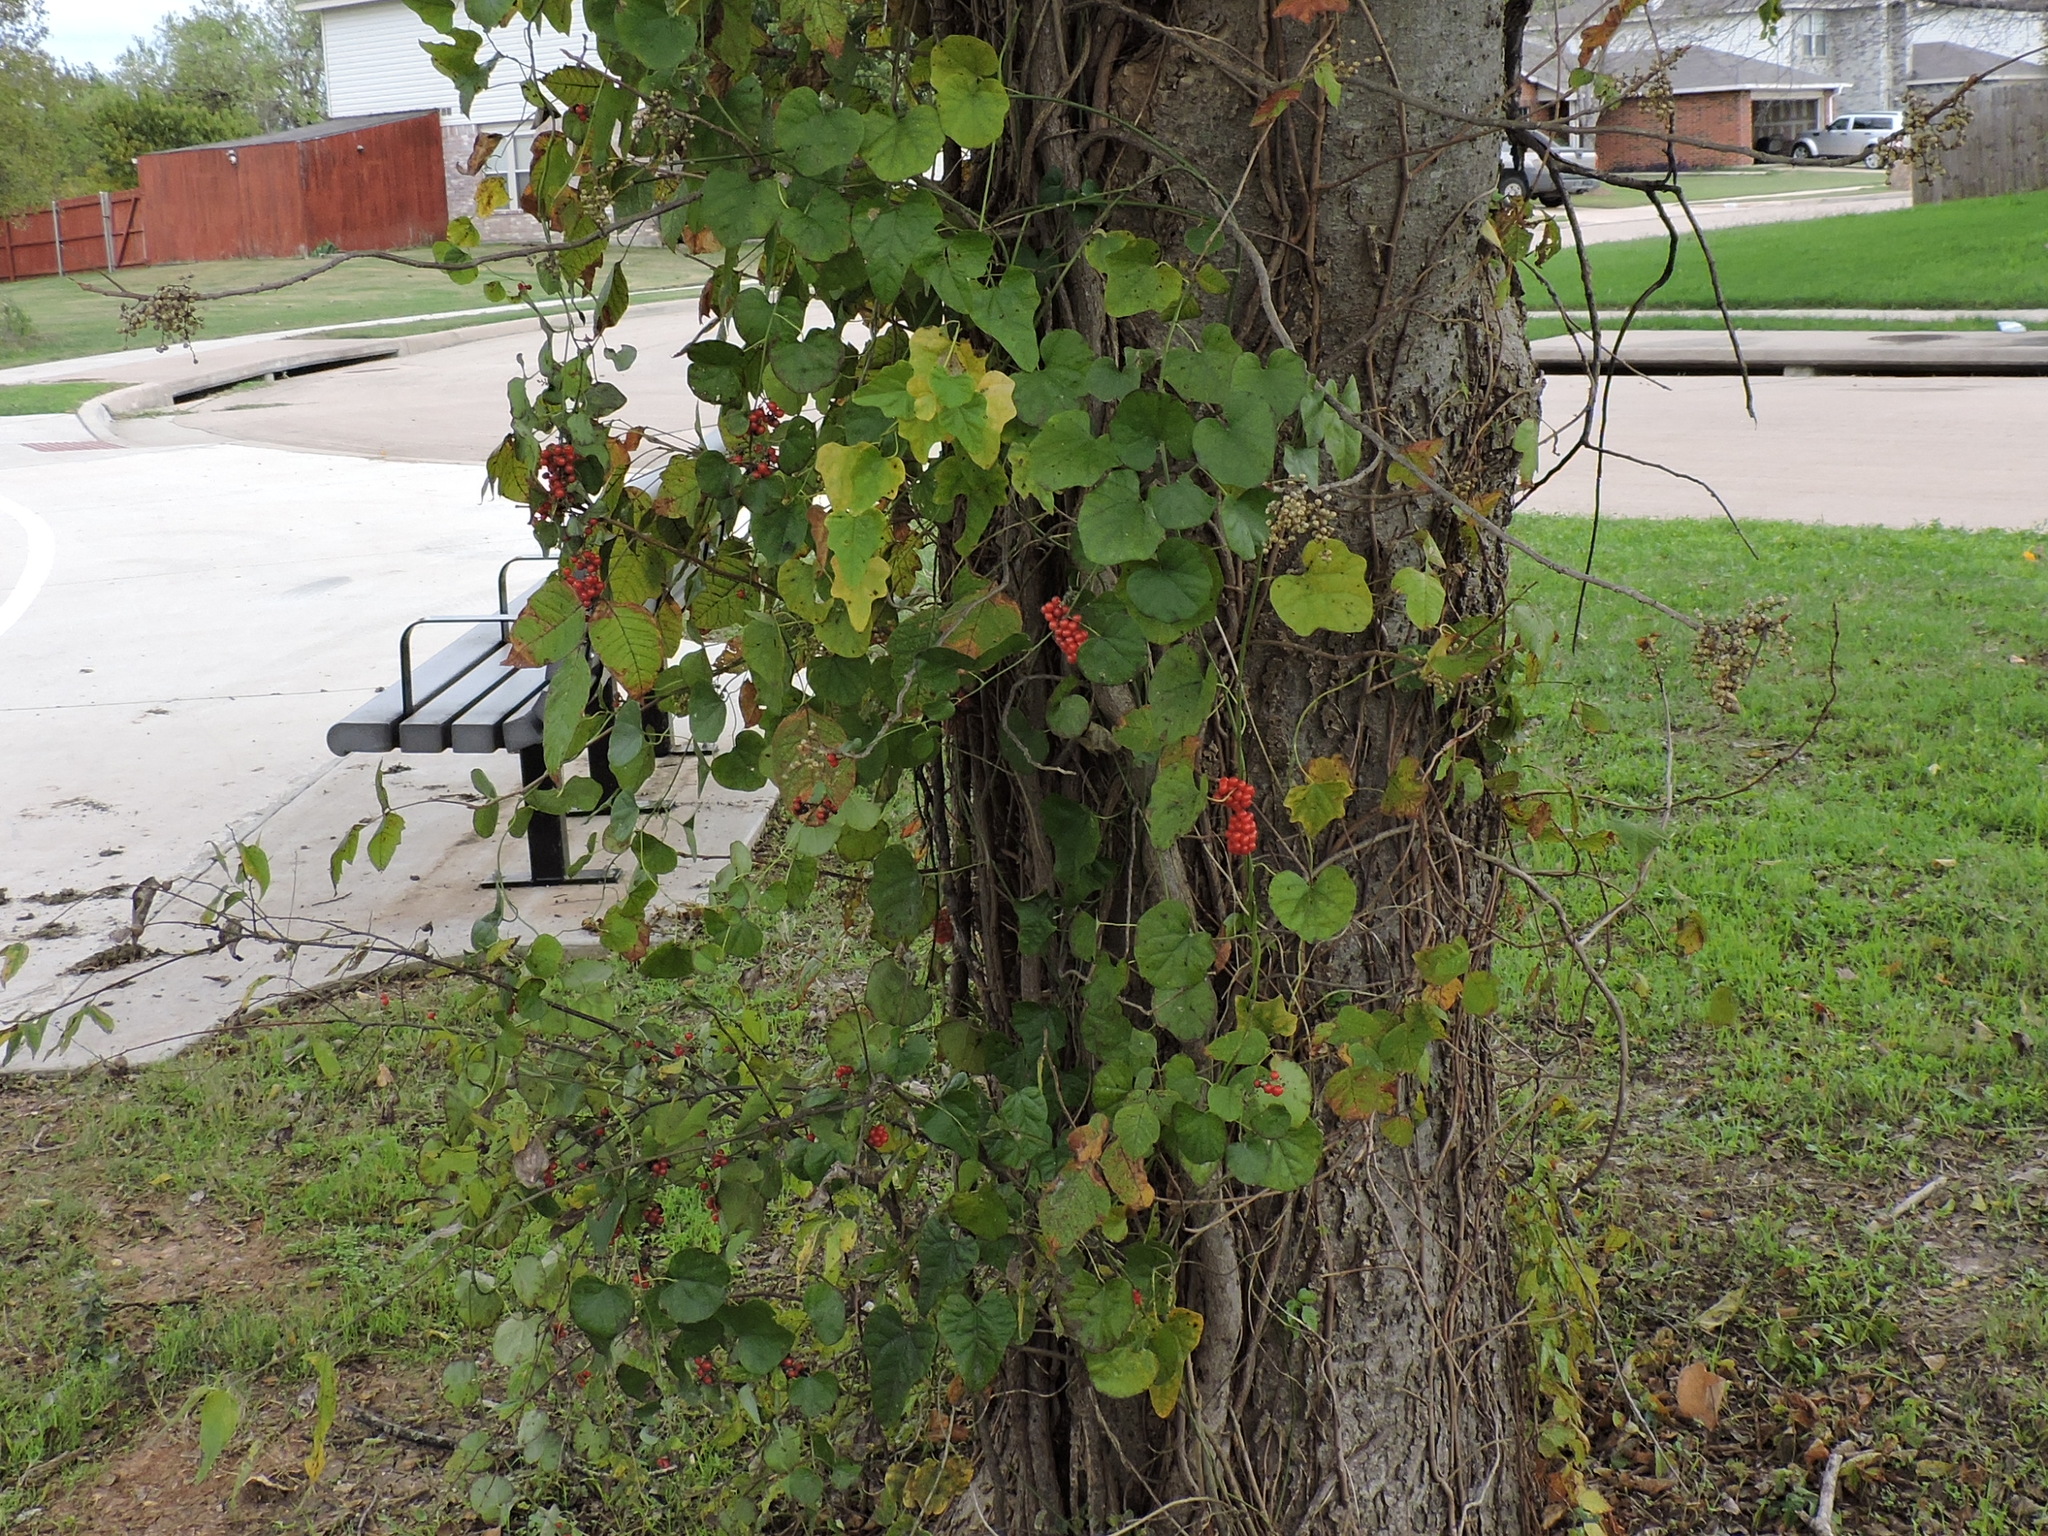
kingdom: Plantae
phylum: Tracheophyta
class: Magnoliopsida
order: Ranunculales
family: Menispermaceae
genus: Cocculus
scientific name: Cocculus carolinus
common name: Carolina moonseed
